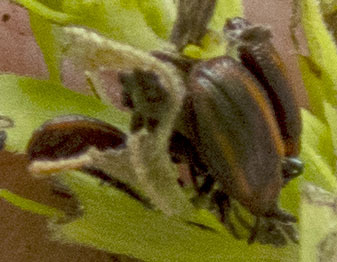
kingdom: Animalia
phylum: Arthropoda
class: Insecta
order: Coleoptera
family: Chrysomelidae
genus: Microrhopala
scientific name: Microrhopala vittata
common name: Goldenrod leaf miner beetle
